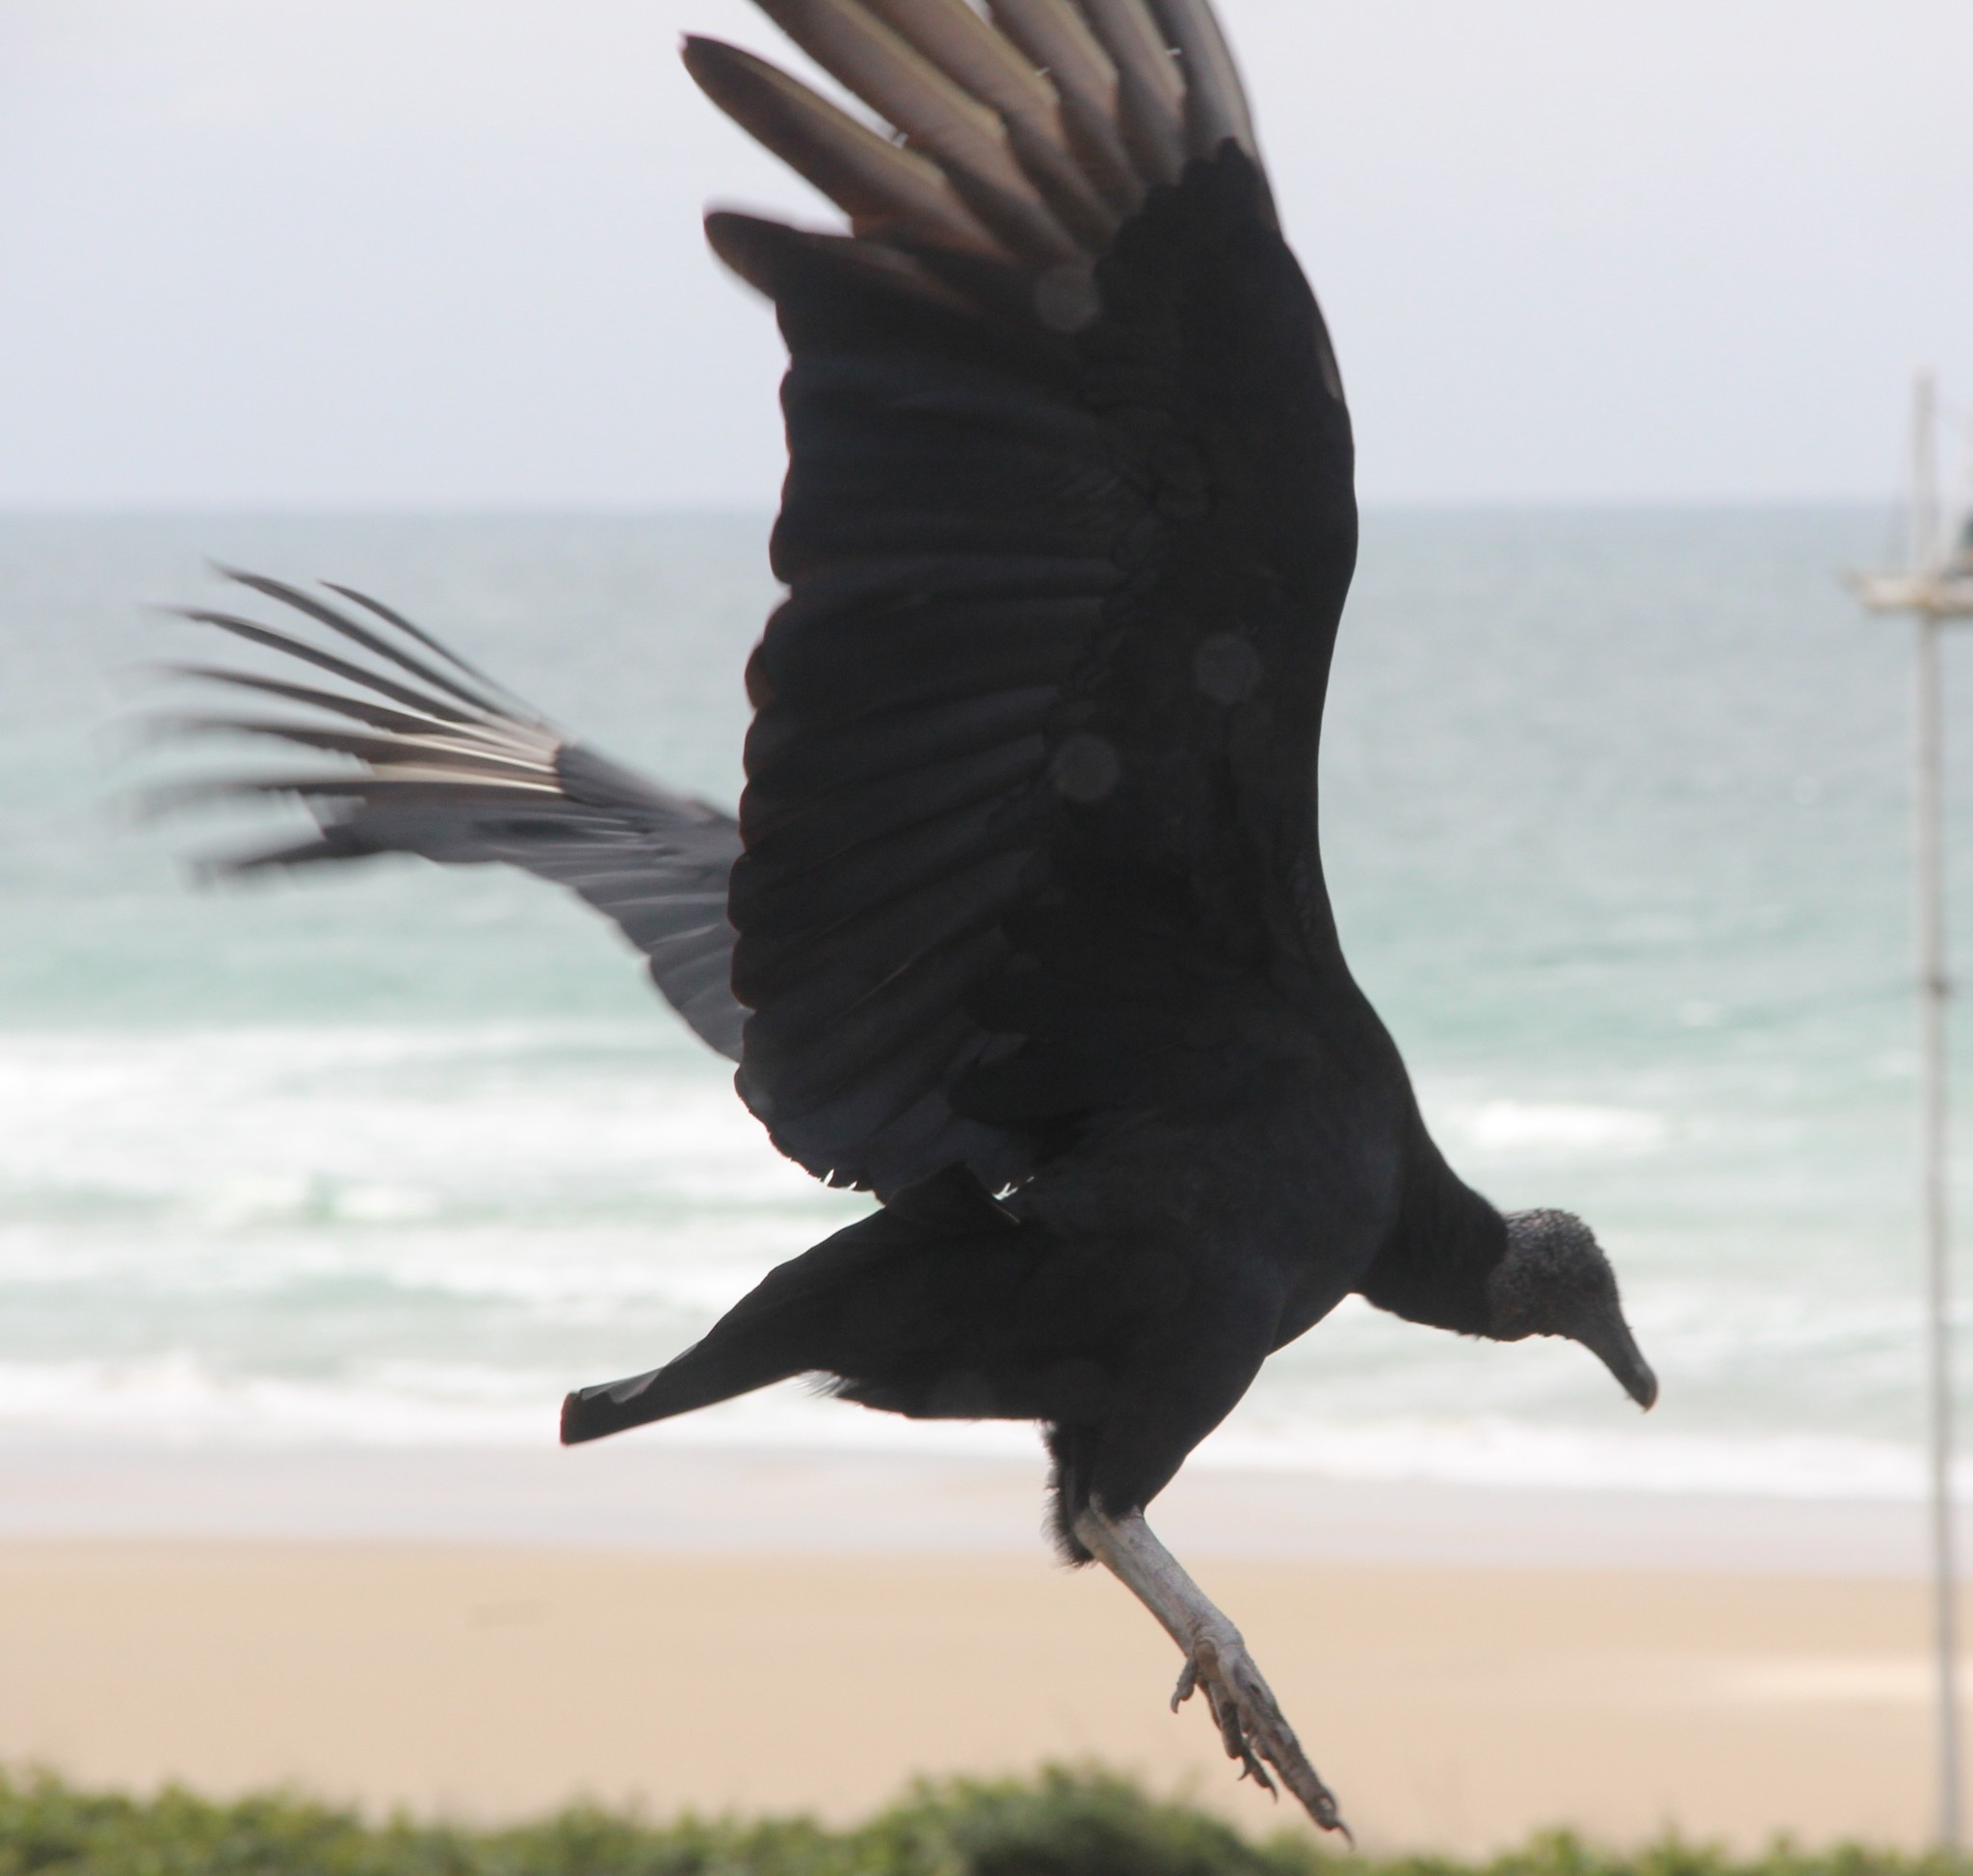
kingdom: Animalia
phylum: Chordata
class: Aves
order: Accipitriformes
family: Cathartidae
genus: Coragyps
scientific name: Coragyps atratus
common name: Black vulture
